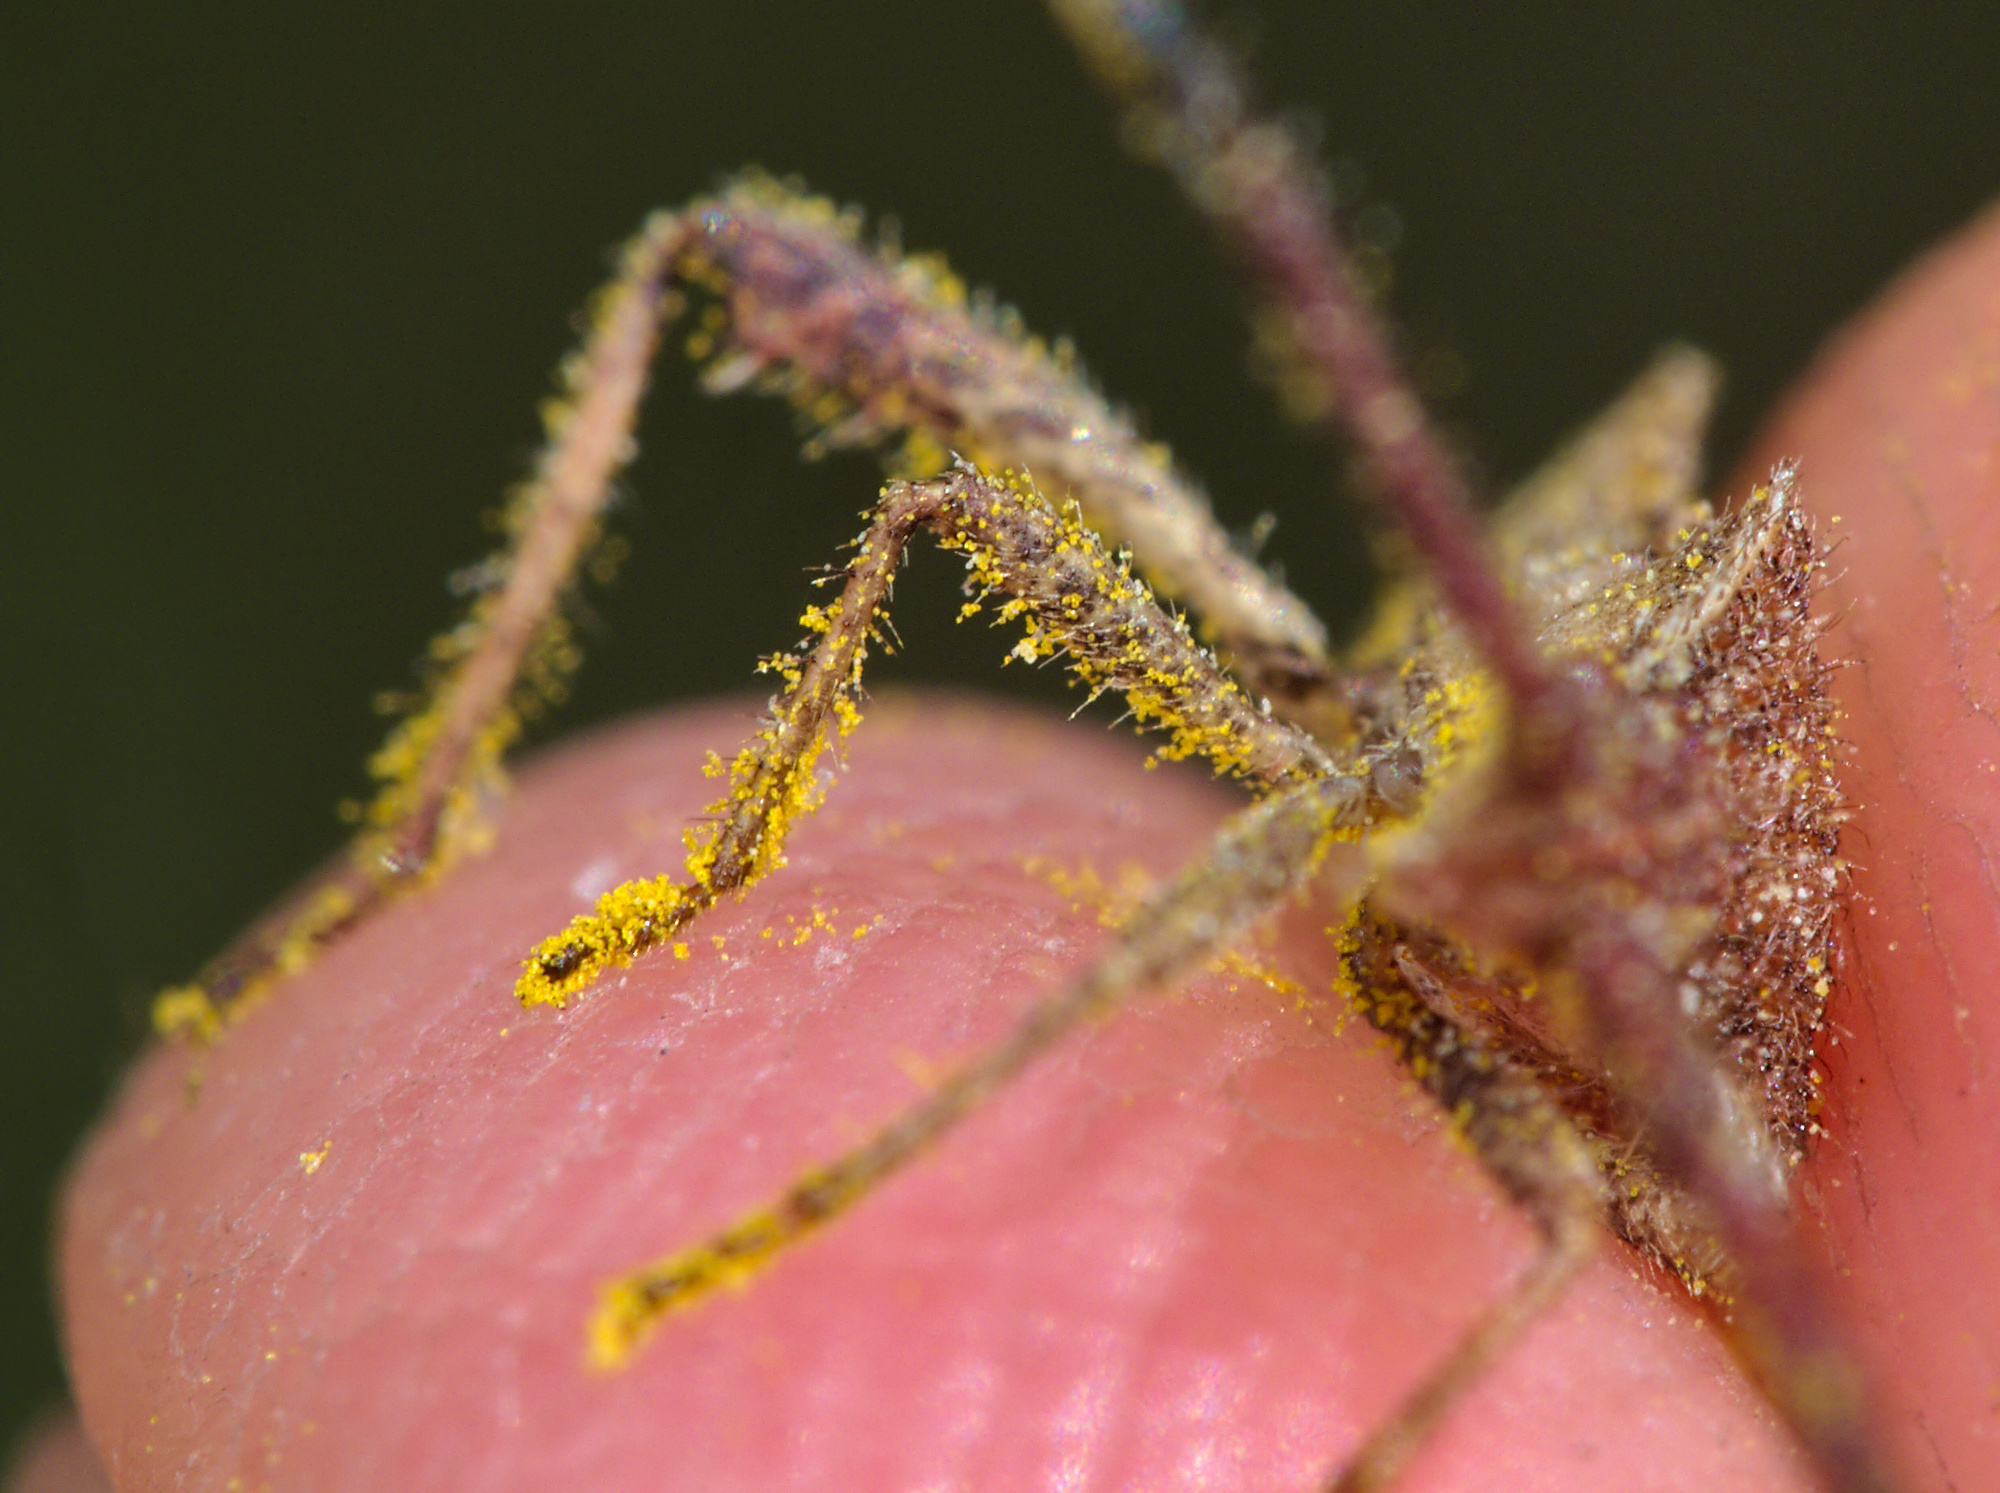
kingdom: Animalia
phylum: Arthropoda
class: Insecta
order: Hemiptera
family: Coreidae
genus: Coriomeris
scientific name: Coriomeris denticulatus
